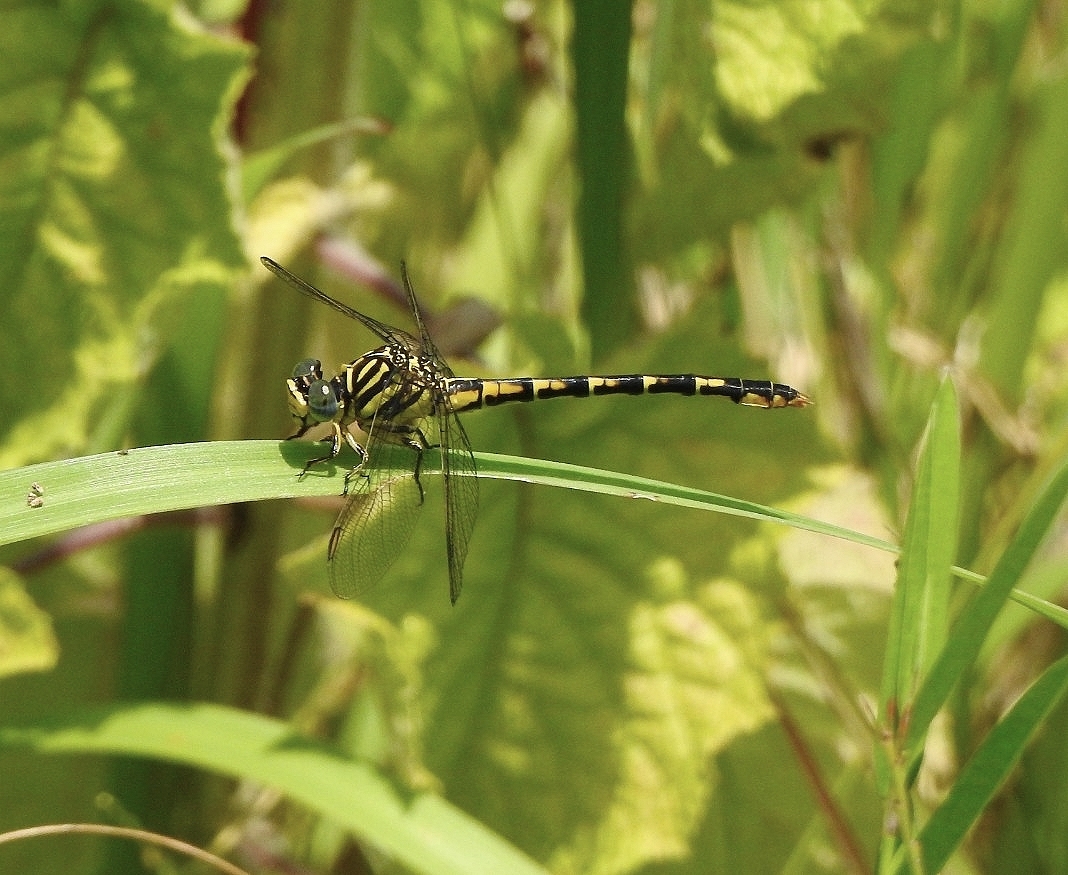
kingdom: Animalia
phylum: Arthropoda
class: Insecta
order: Odonata
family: Gomphidae
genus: Paragomphus
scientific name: Paragomphus lineatus
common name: Lined hooktail
